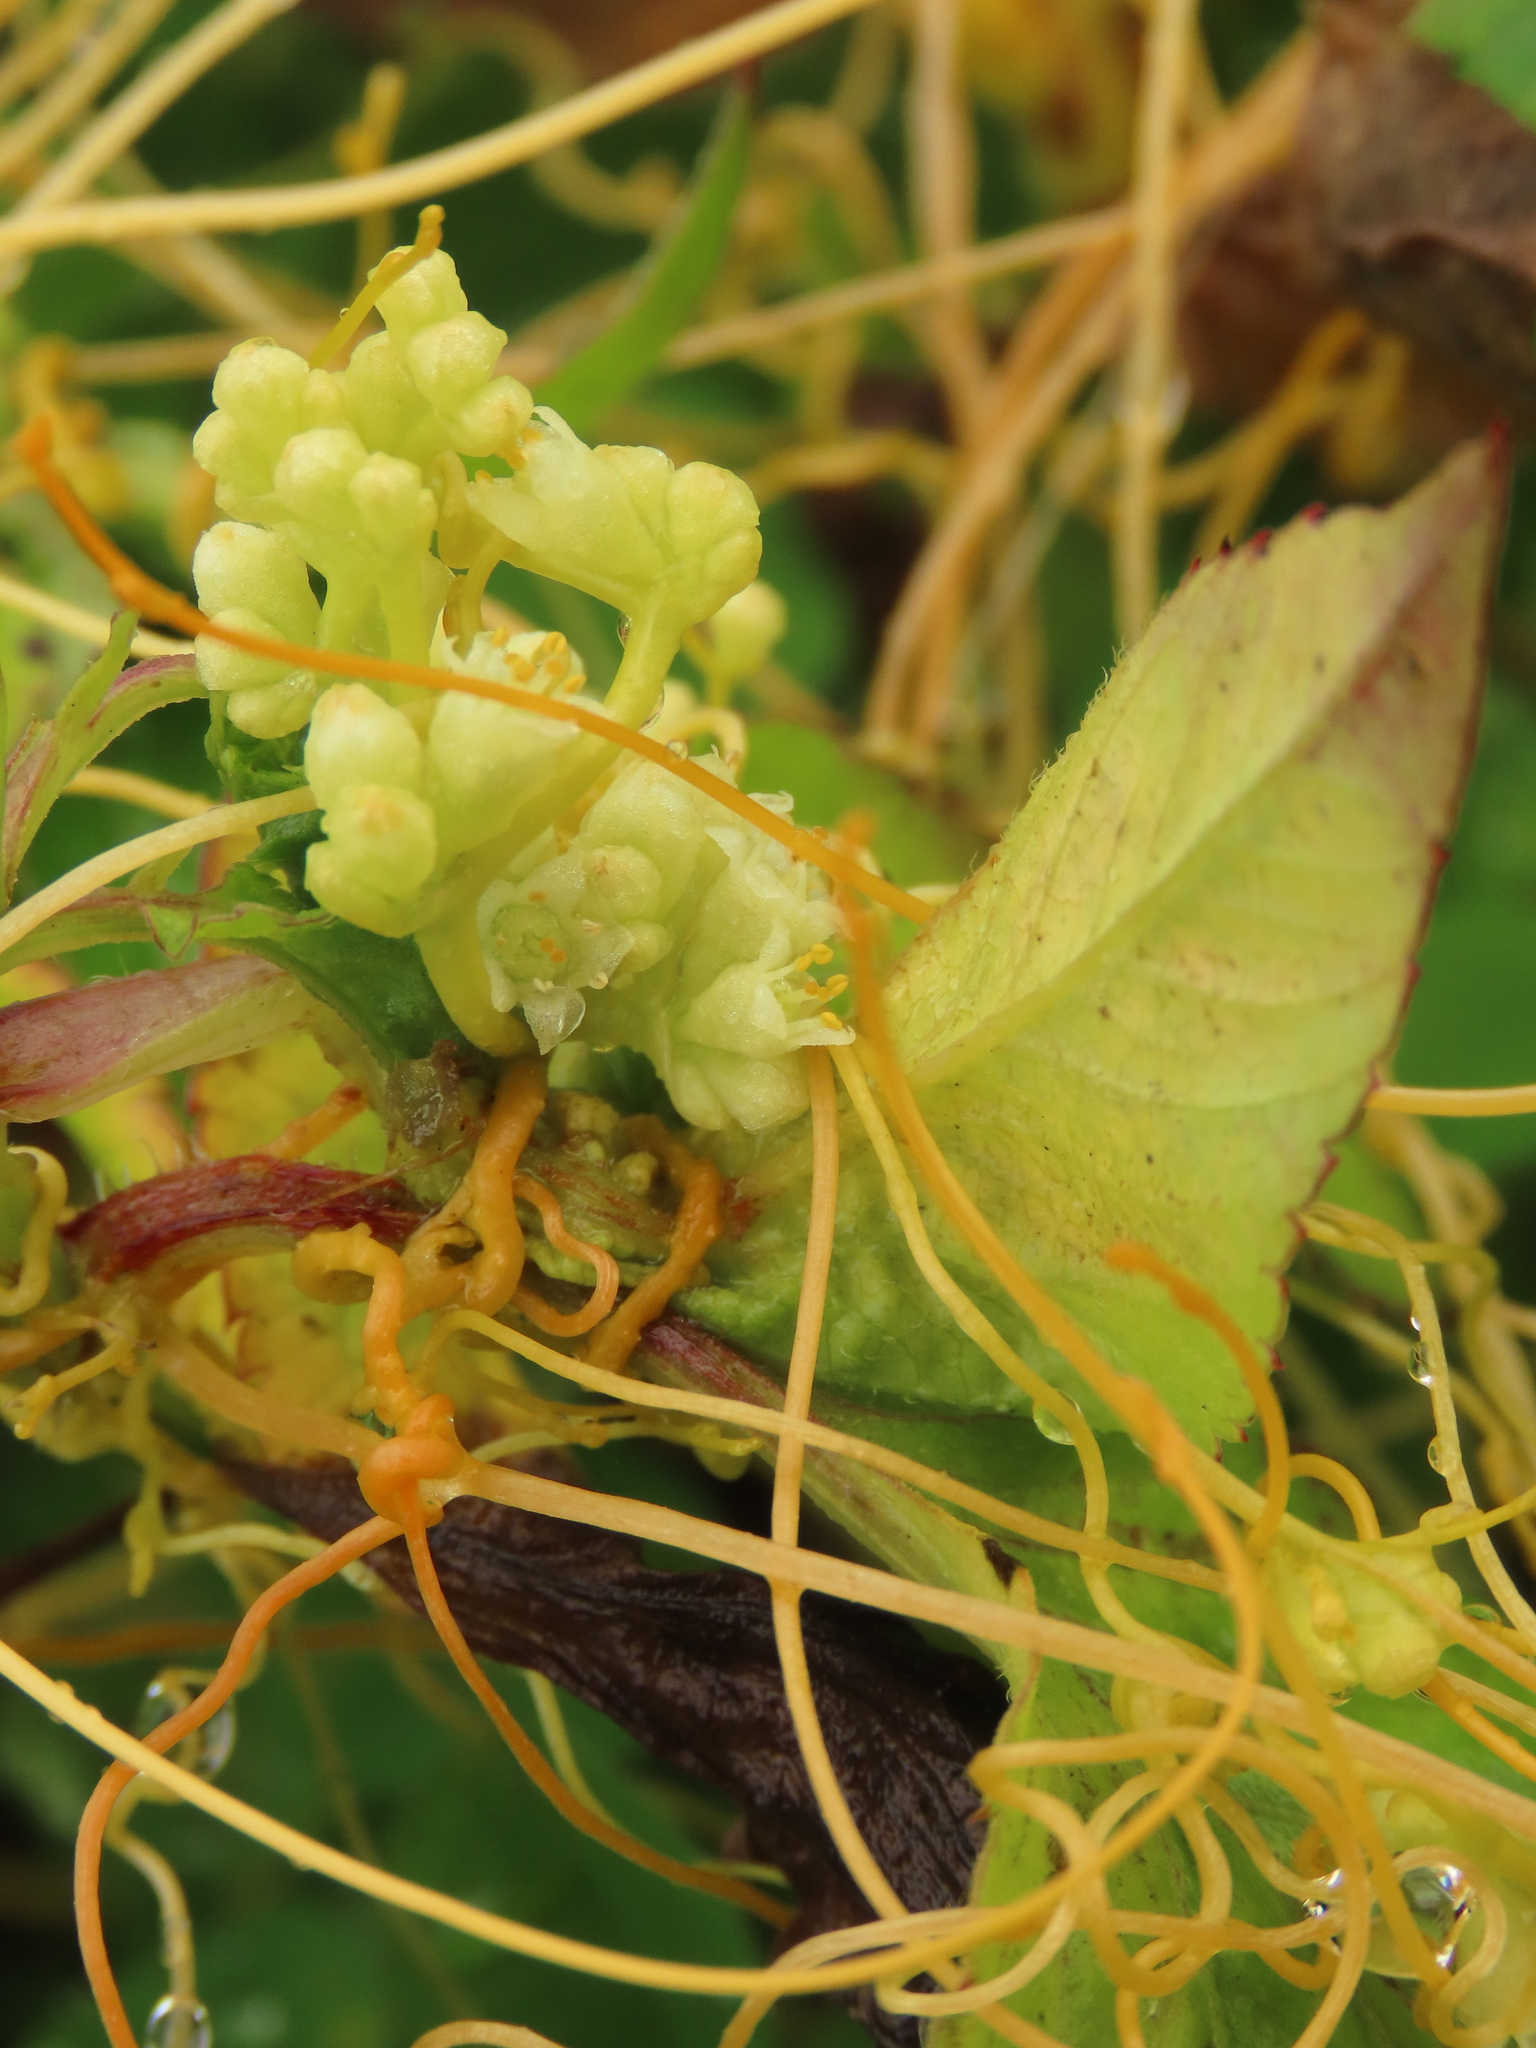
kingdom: Plantae
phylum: Tracheophyta
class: Magnoliopsida
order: Solanales
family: Convolvulaceae
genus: Cuscuta
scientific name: Cuscuta campestris
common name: Yellow dodder
